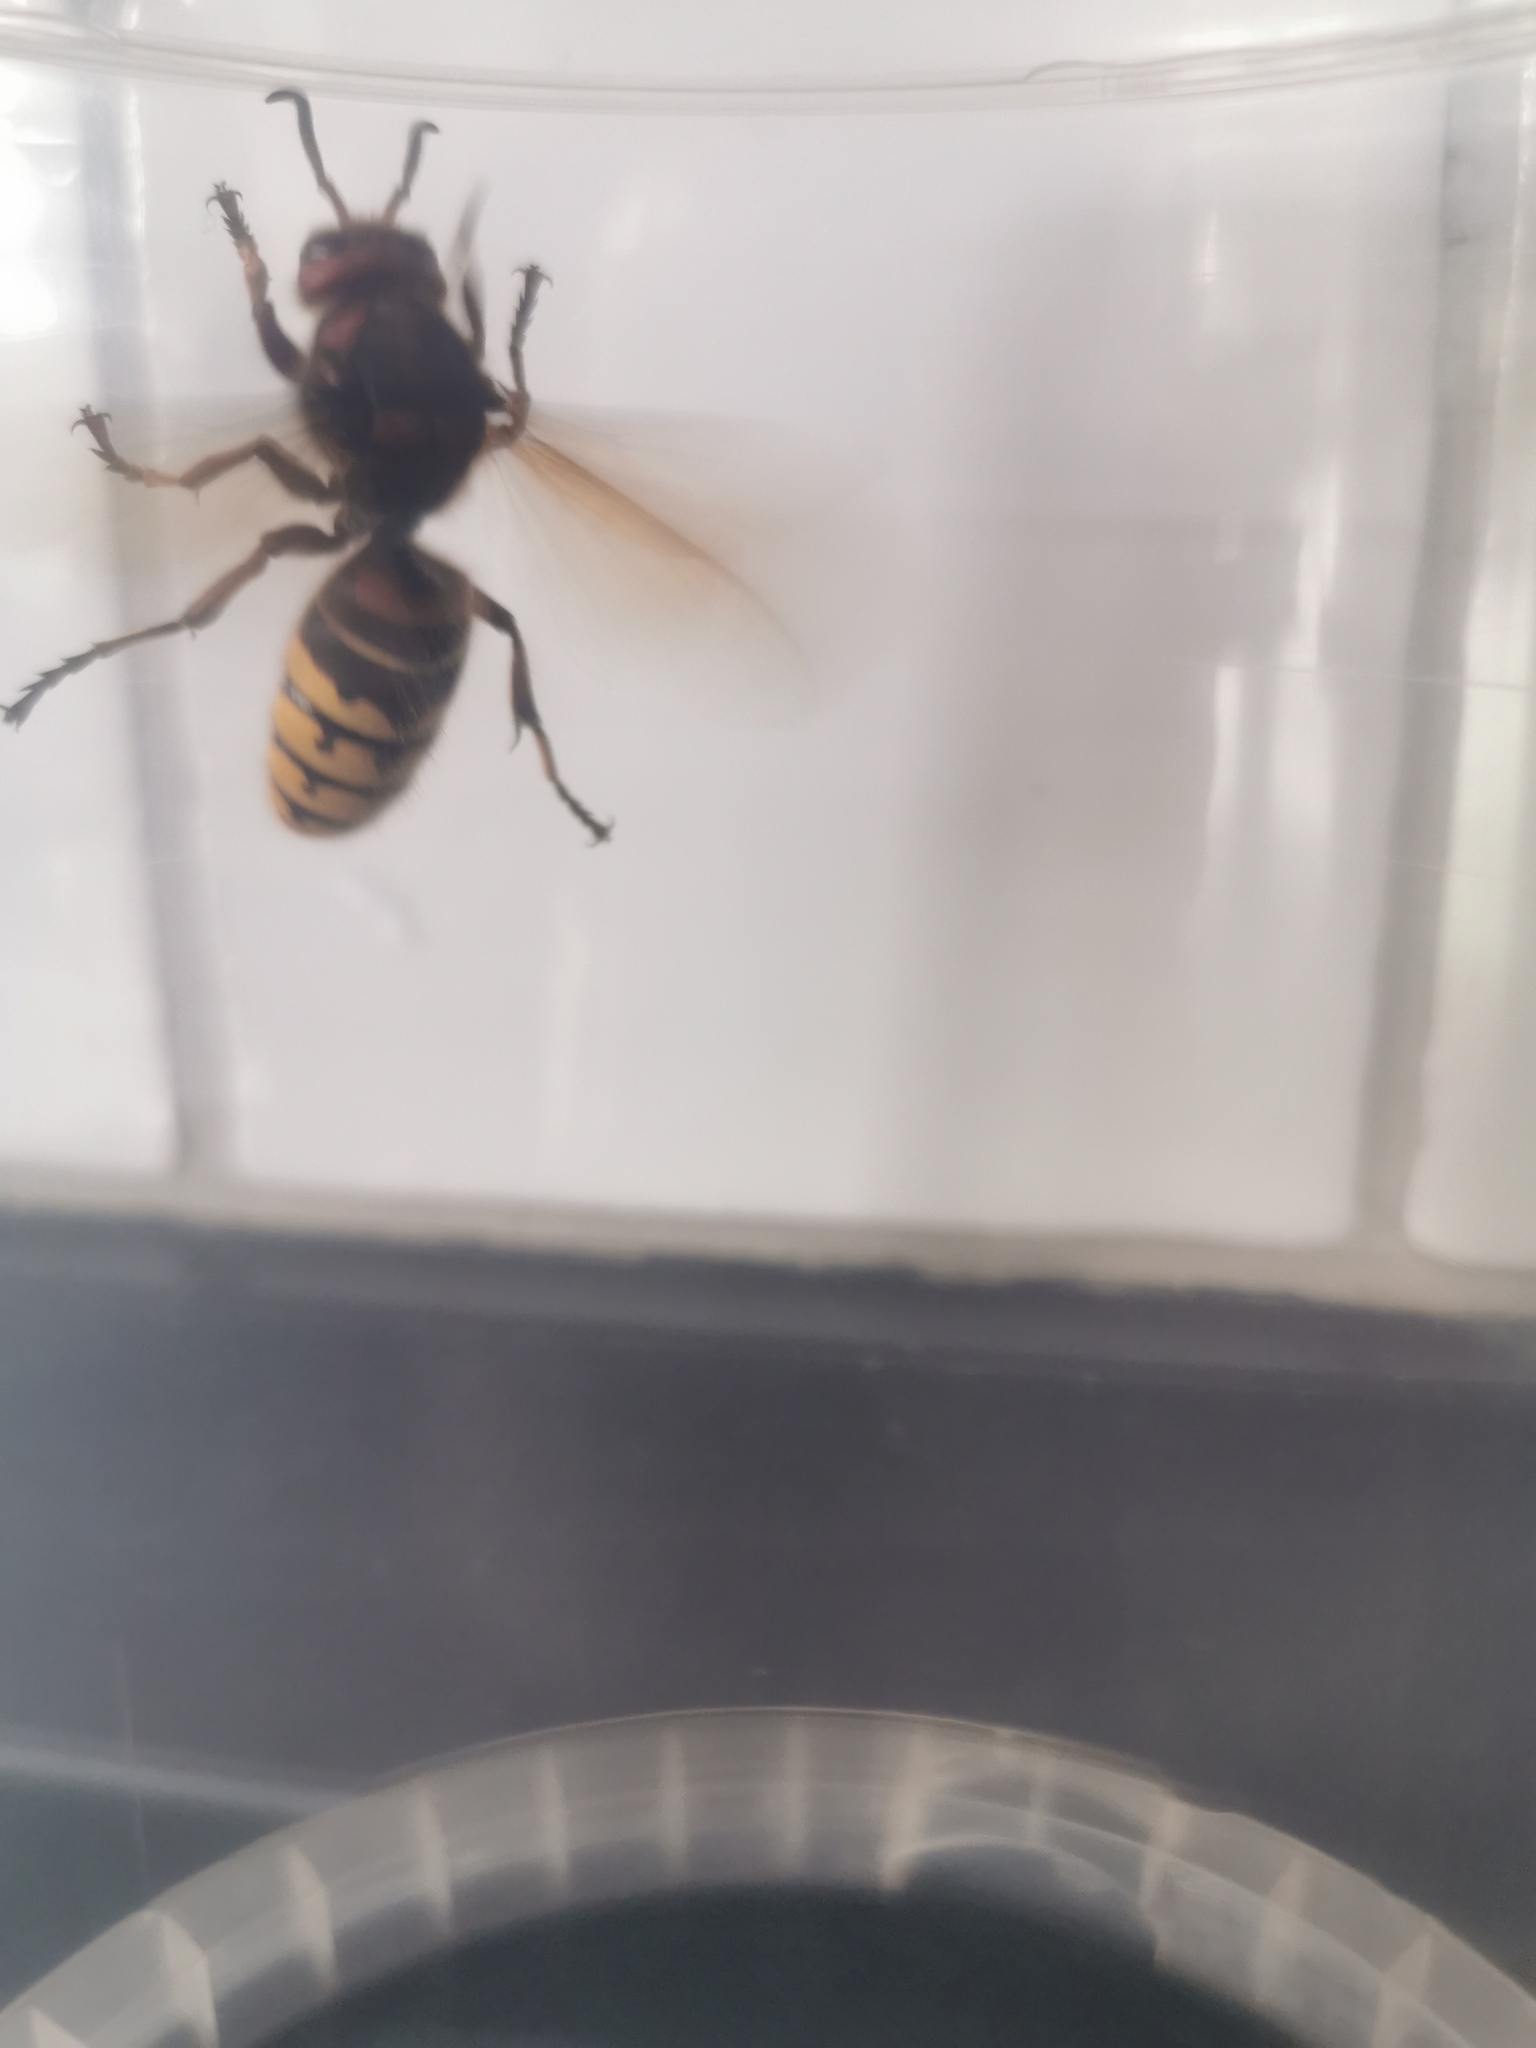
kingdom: Animalia
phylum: Arthropoda
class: Insecta
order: Hymenoptera
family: Vespidae
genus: Vespa
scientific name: Vespa crabro
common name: Hornet
